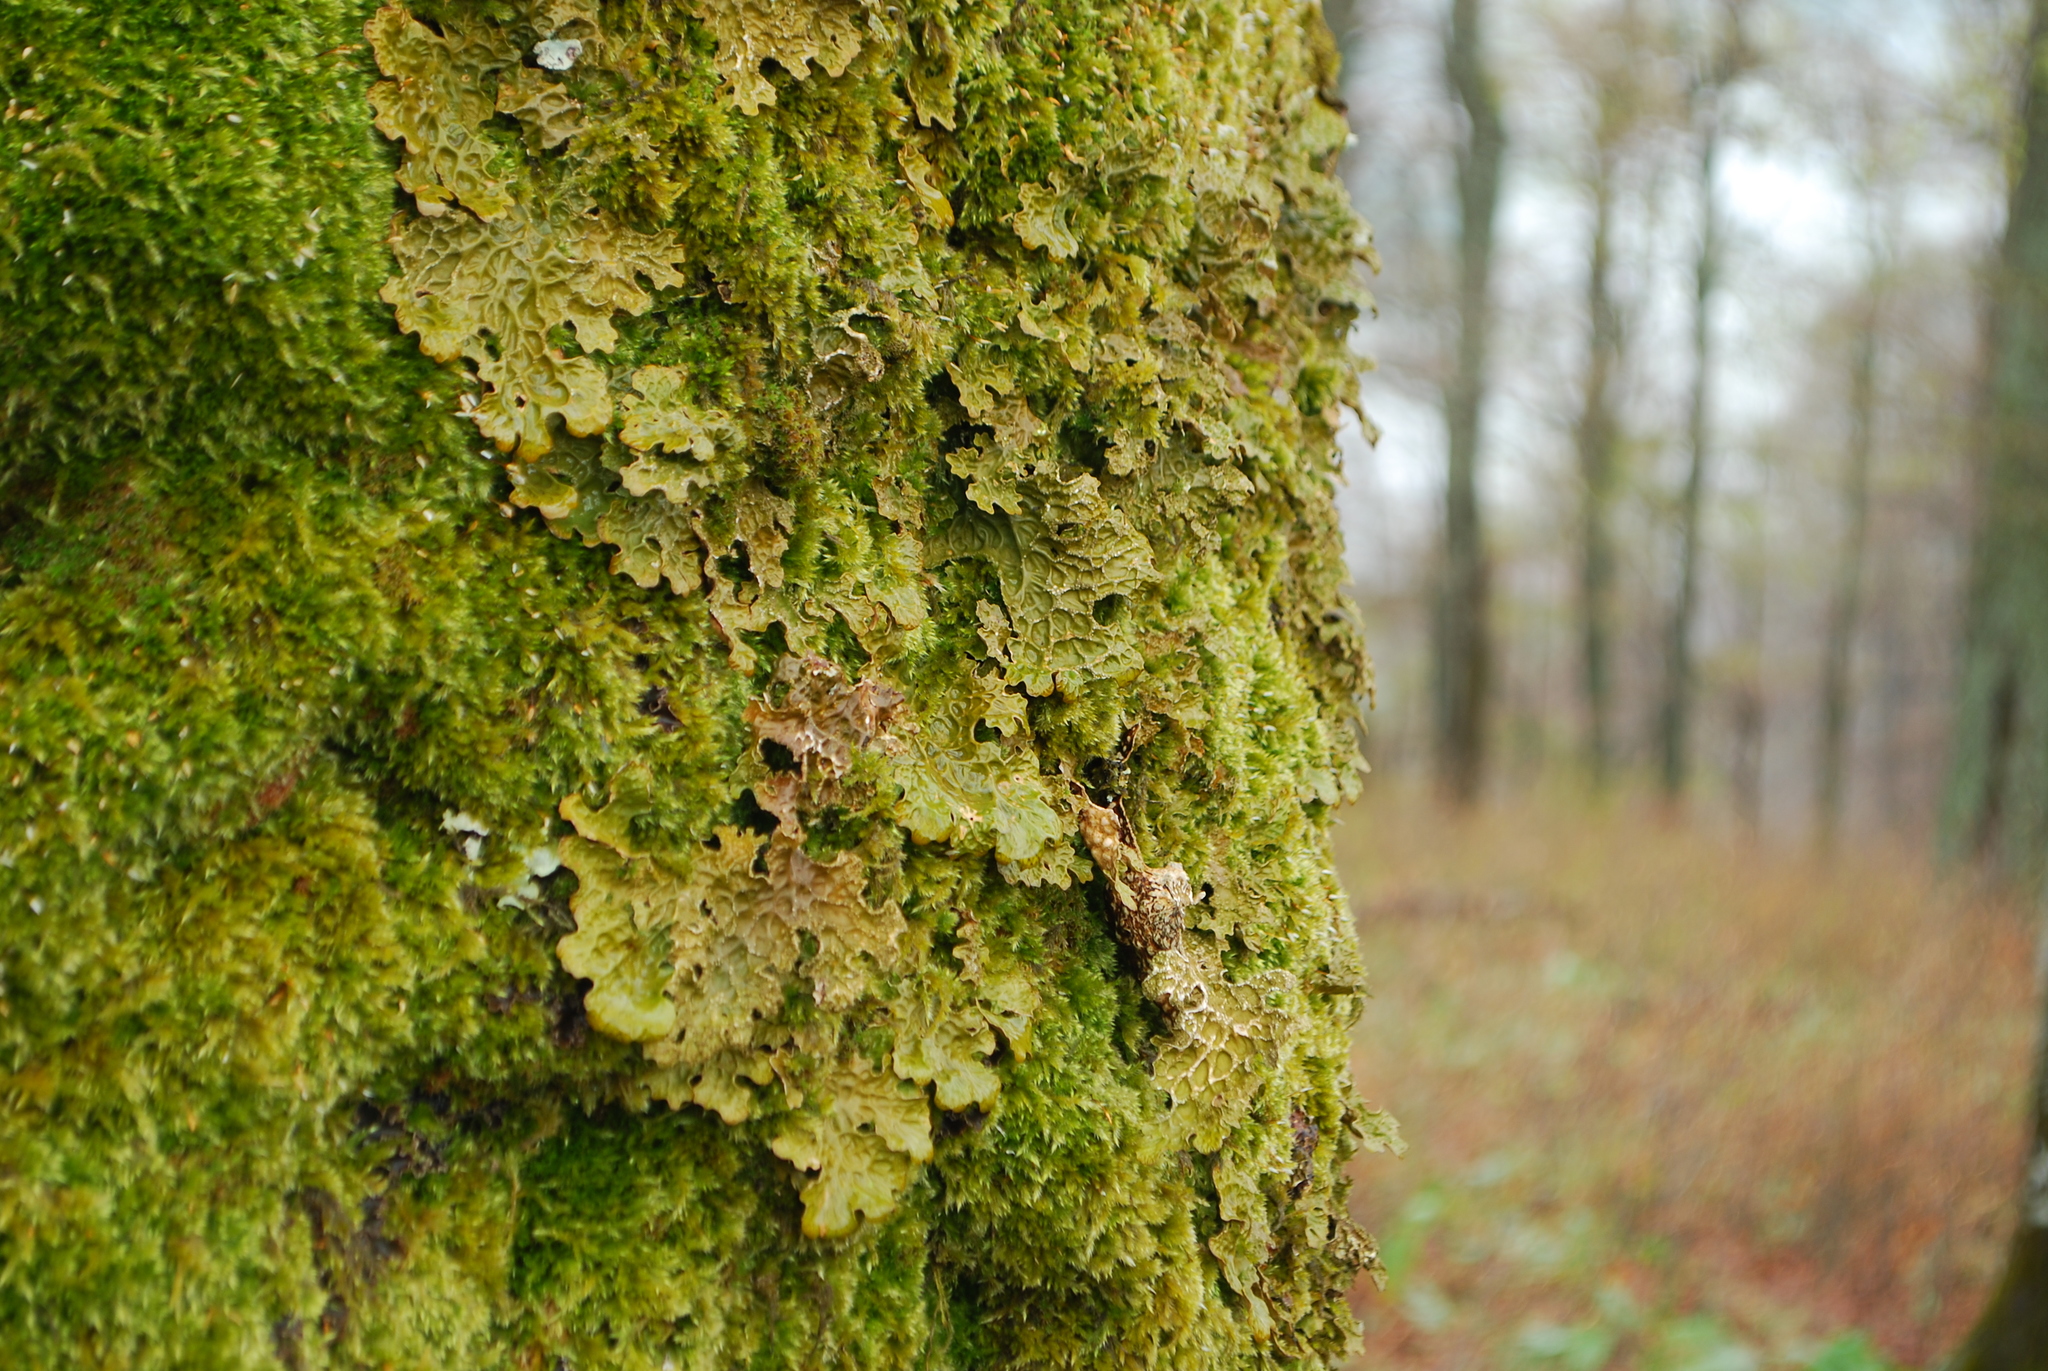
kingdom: Fungi
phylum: Ascomycota
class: Lecanoromycetes
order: Peltigerales
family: Lobariaceae
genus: Lobaria
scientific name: Lobaria pulmonaria
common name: Lungwort
